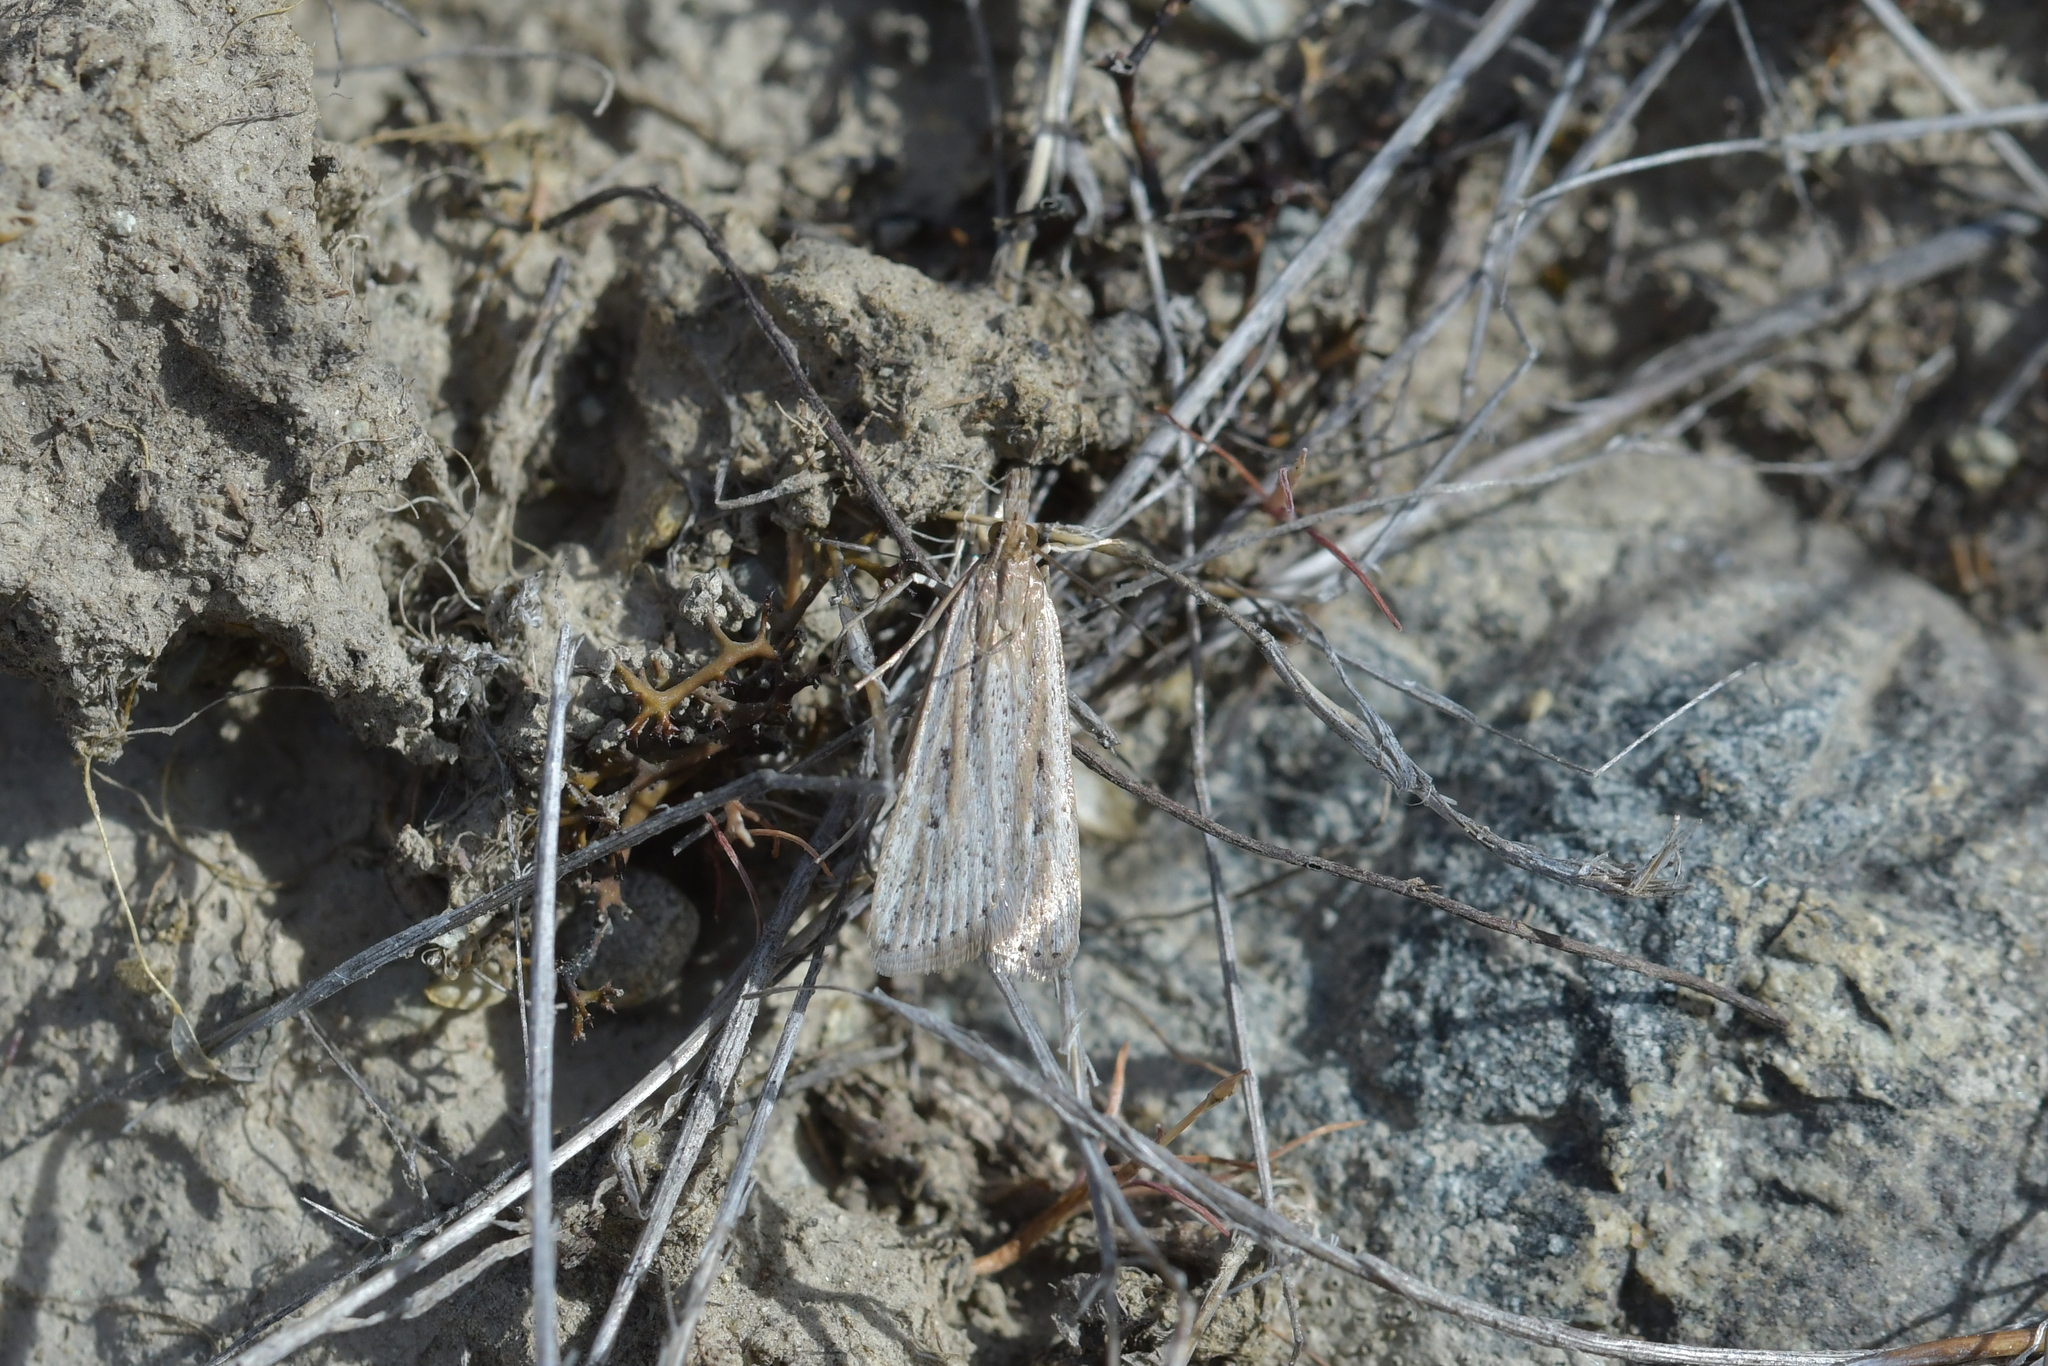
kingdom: Animalia
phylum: Arthropoda
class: Insecta
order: Lepidoptera
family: Crambidae
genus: Eudonia
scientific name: Eudonia sabulosella
